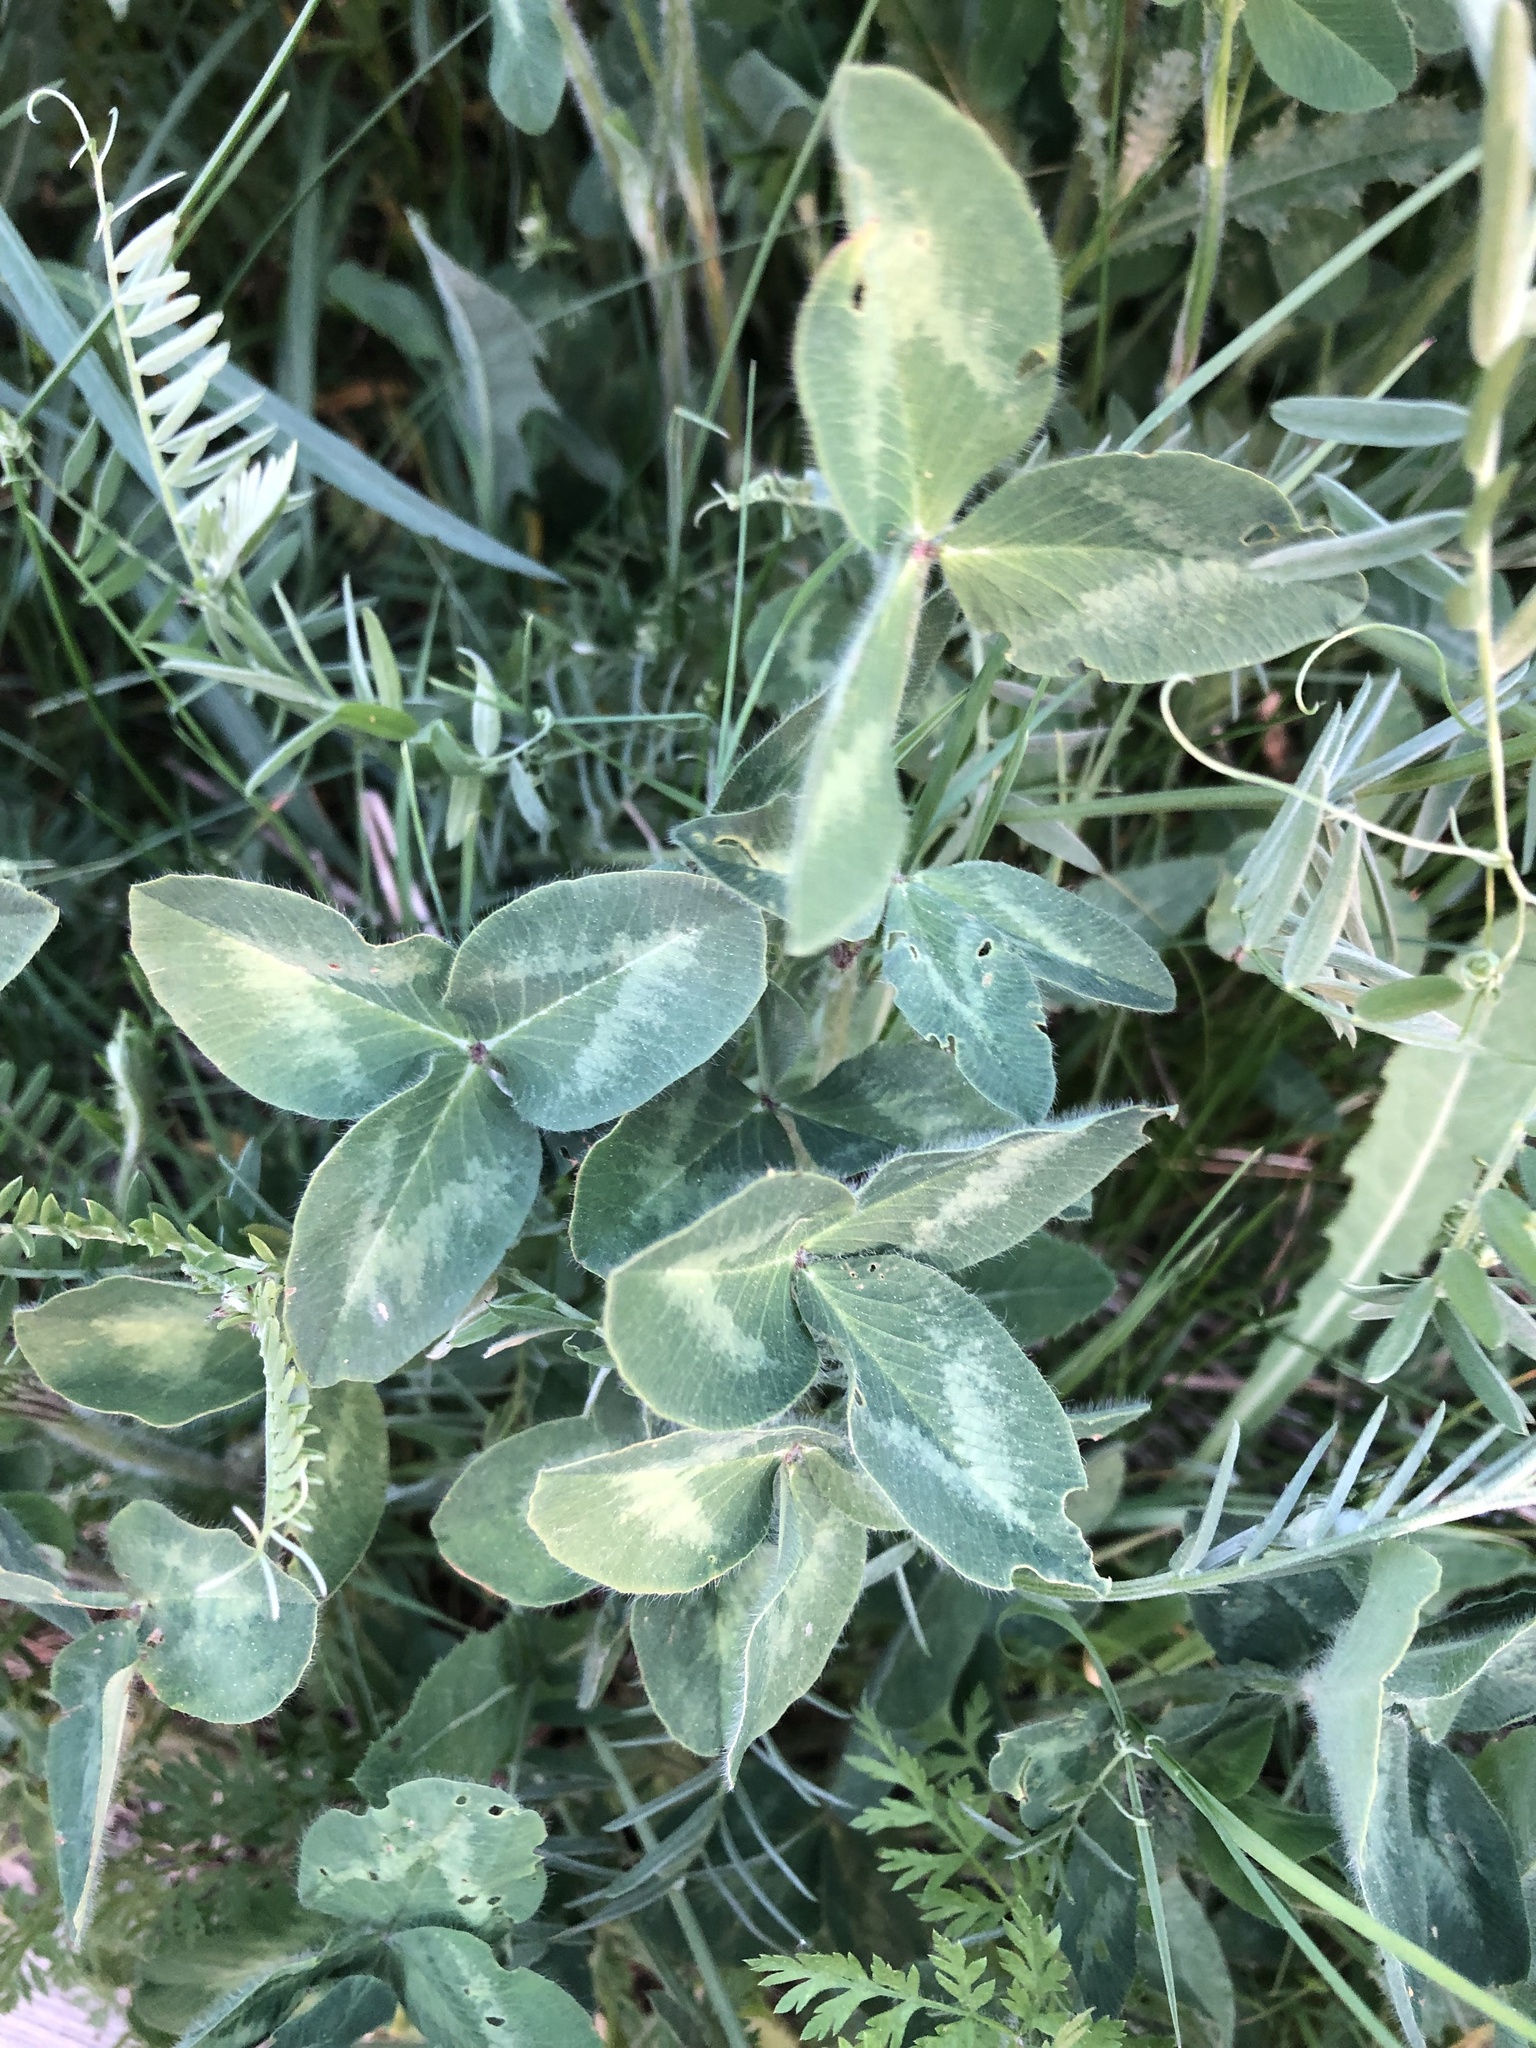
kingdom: Plantae
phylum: Tracheophyta
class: Magnoliopsida
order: Fabales
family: Fabaceae
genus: Trifolium
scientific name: Trifolium pratense
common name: Red clover
